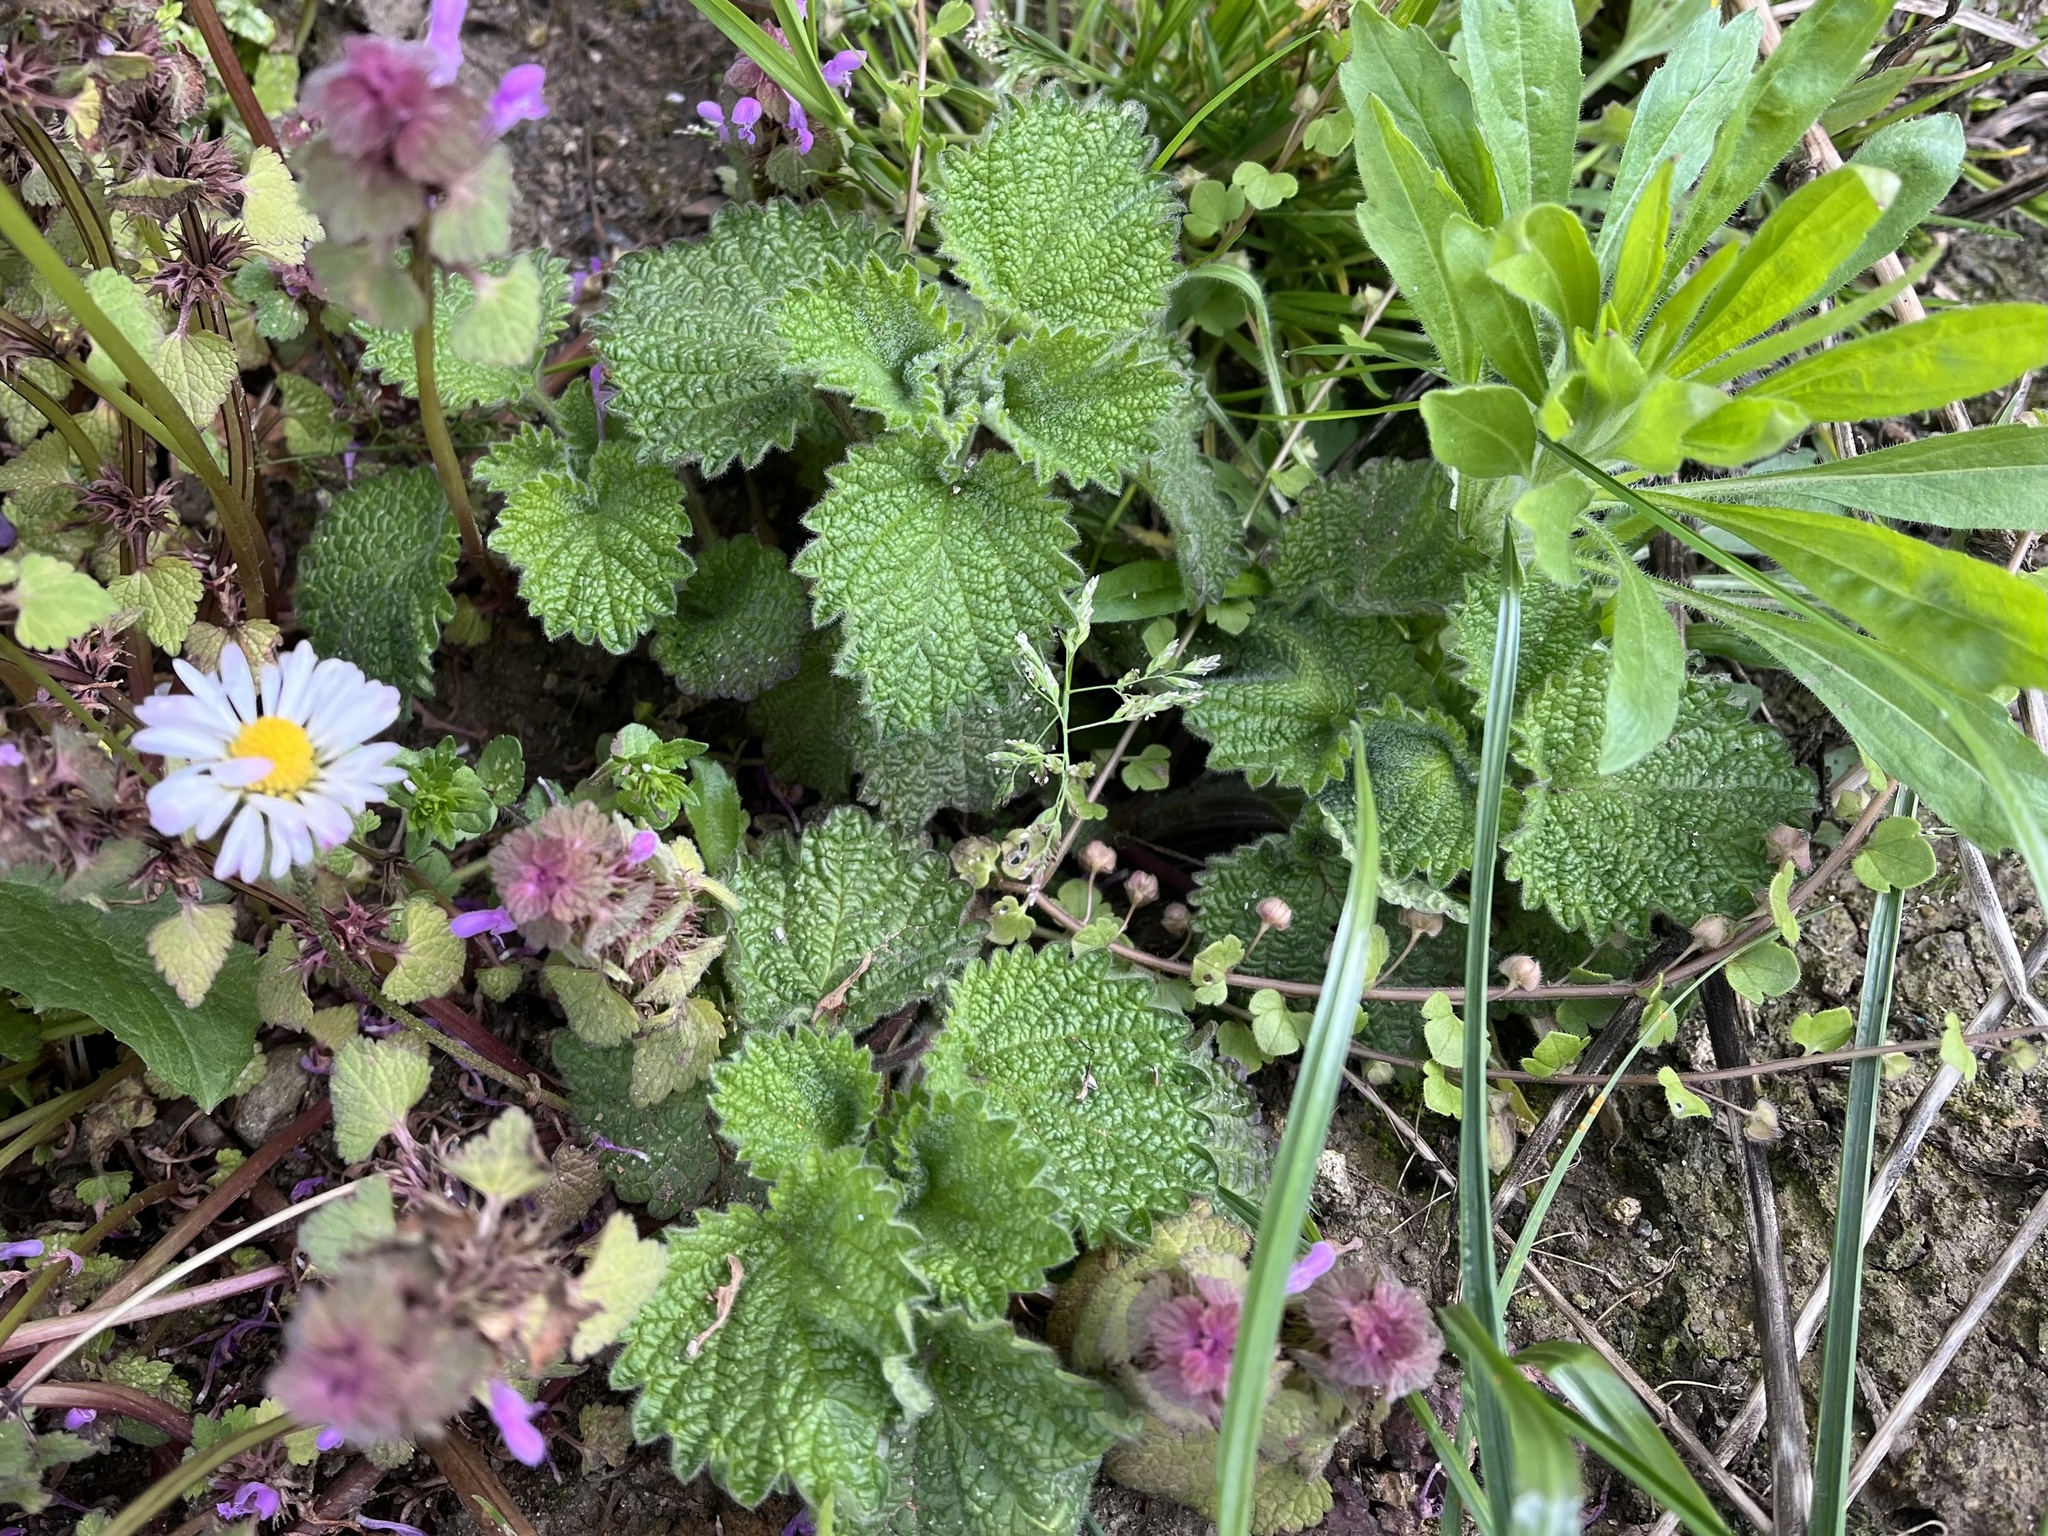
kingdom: Plantae
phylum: Tracheophyta
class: Magnoliopsida
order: Lamiales
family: Lamiaceae
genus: Ballota
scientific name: Ballota nigra
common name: Black horehound
